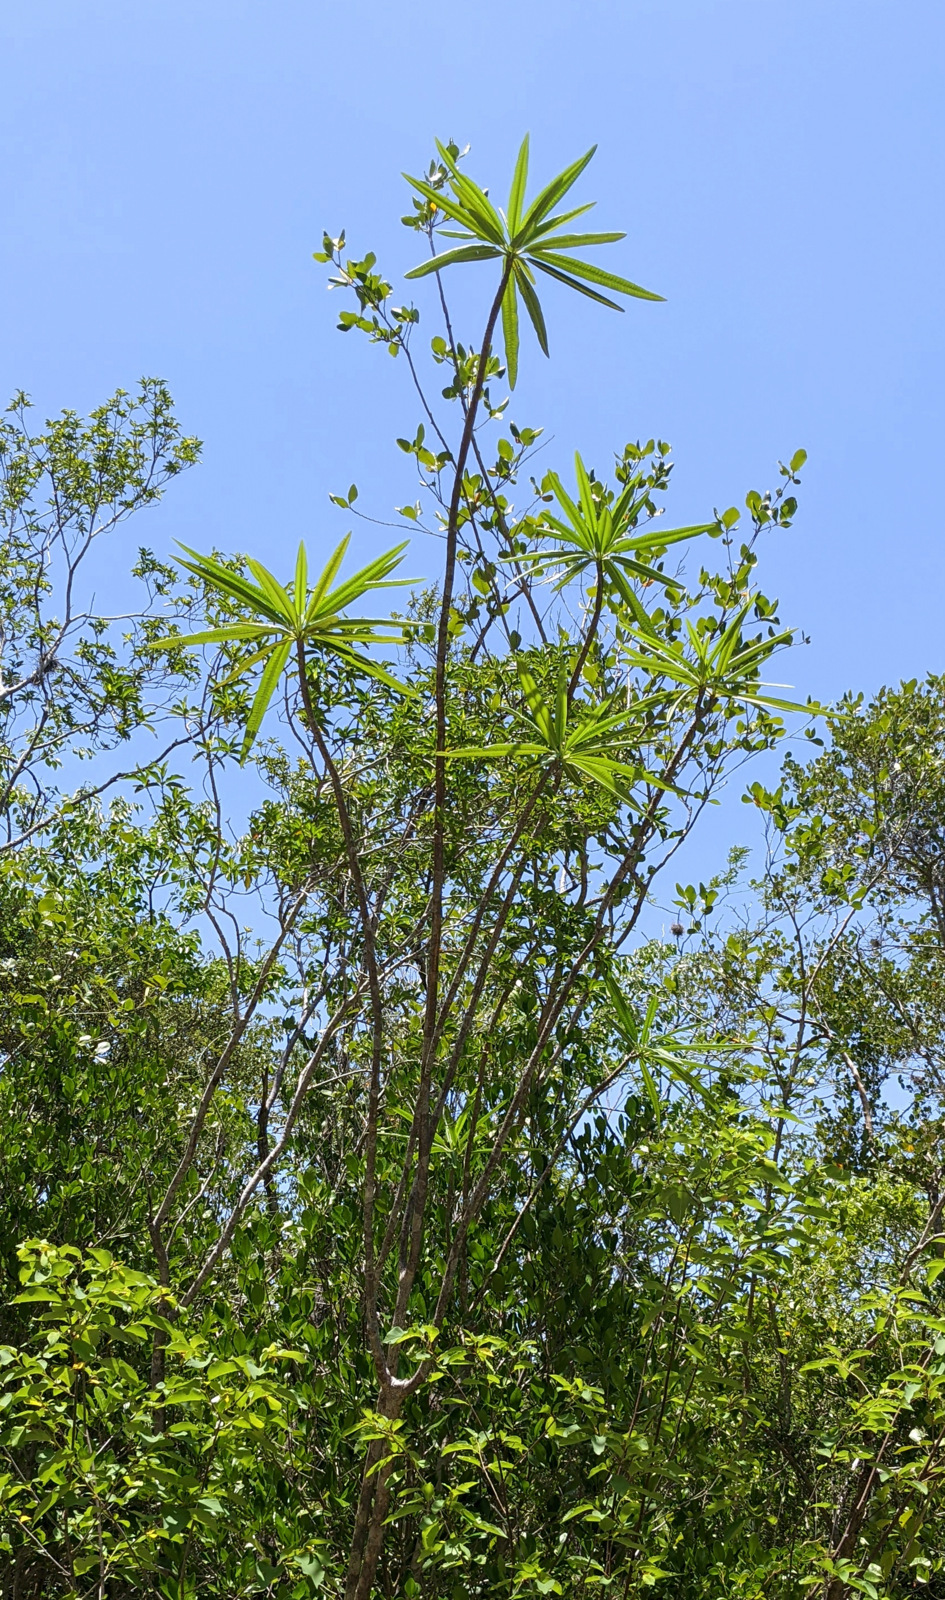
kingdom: Plantae
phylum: Tracheophyta
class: Magnoliopsida
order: Gentianales
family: Apocynaceae
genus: Plumeria
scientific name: Plumeria alba
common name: Wild frangipani
